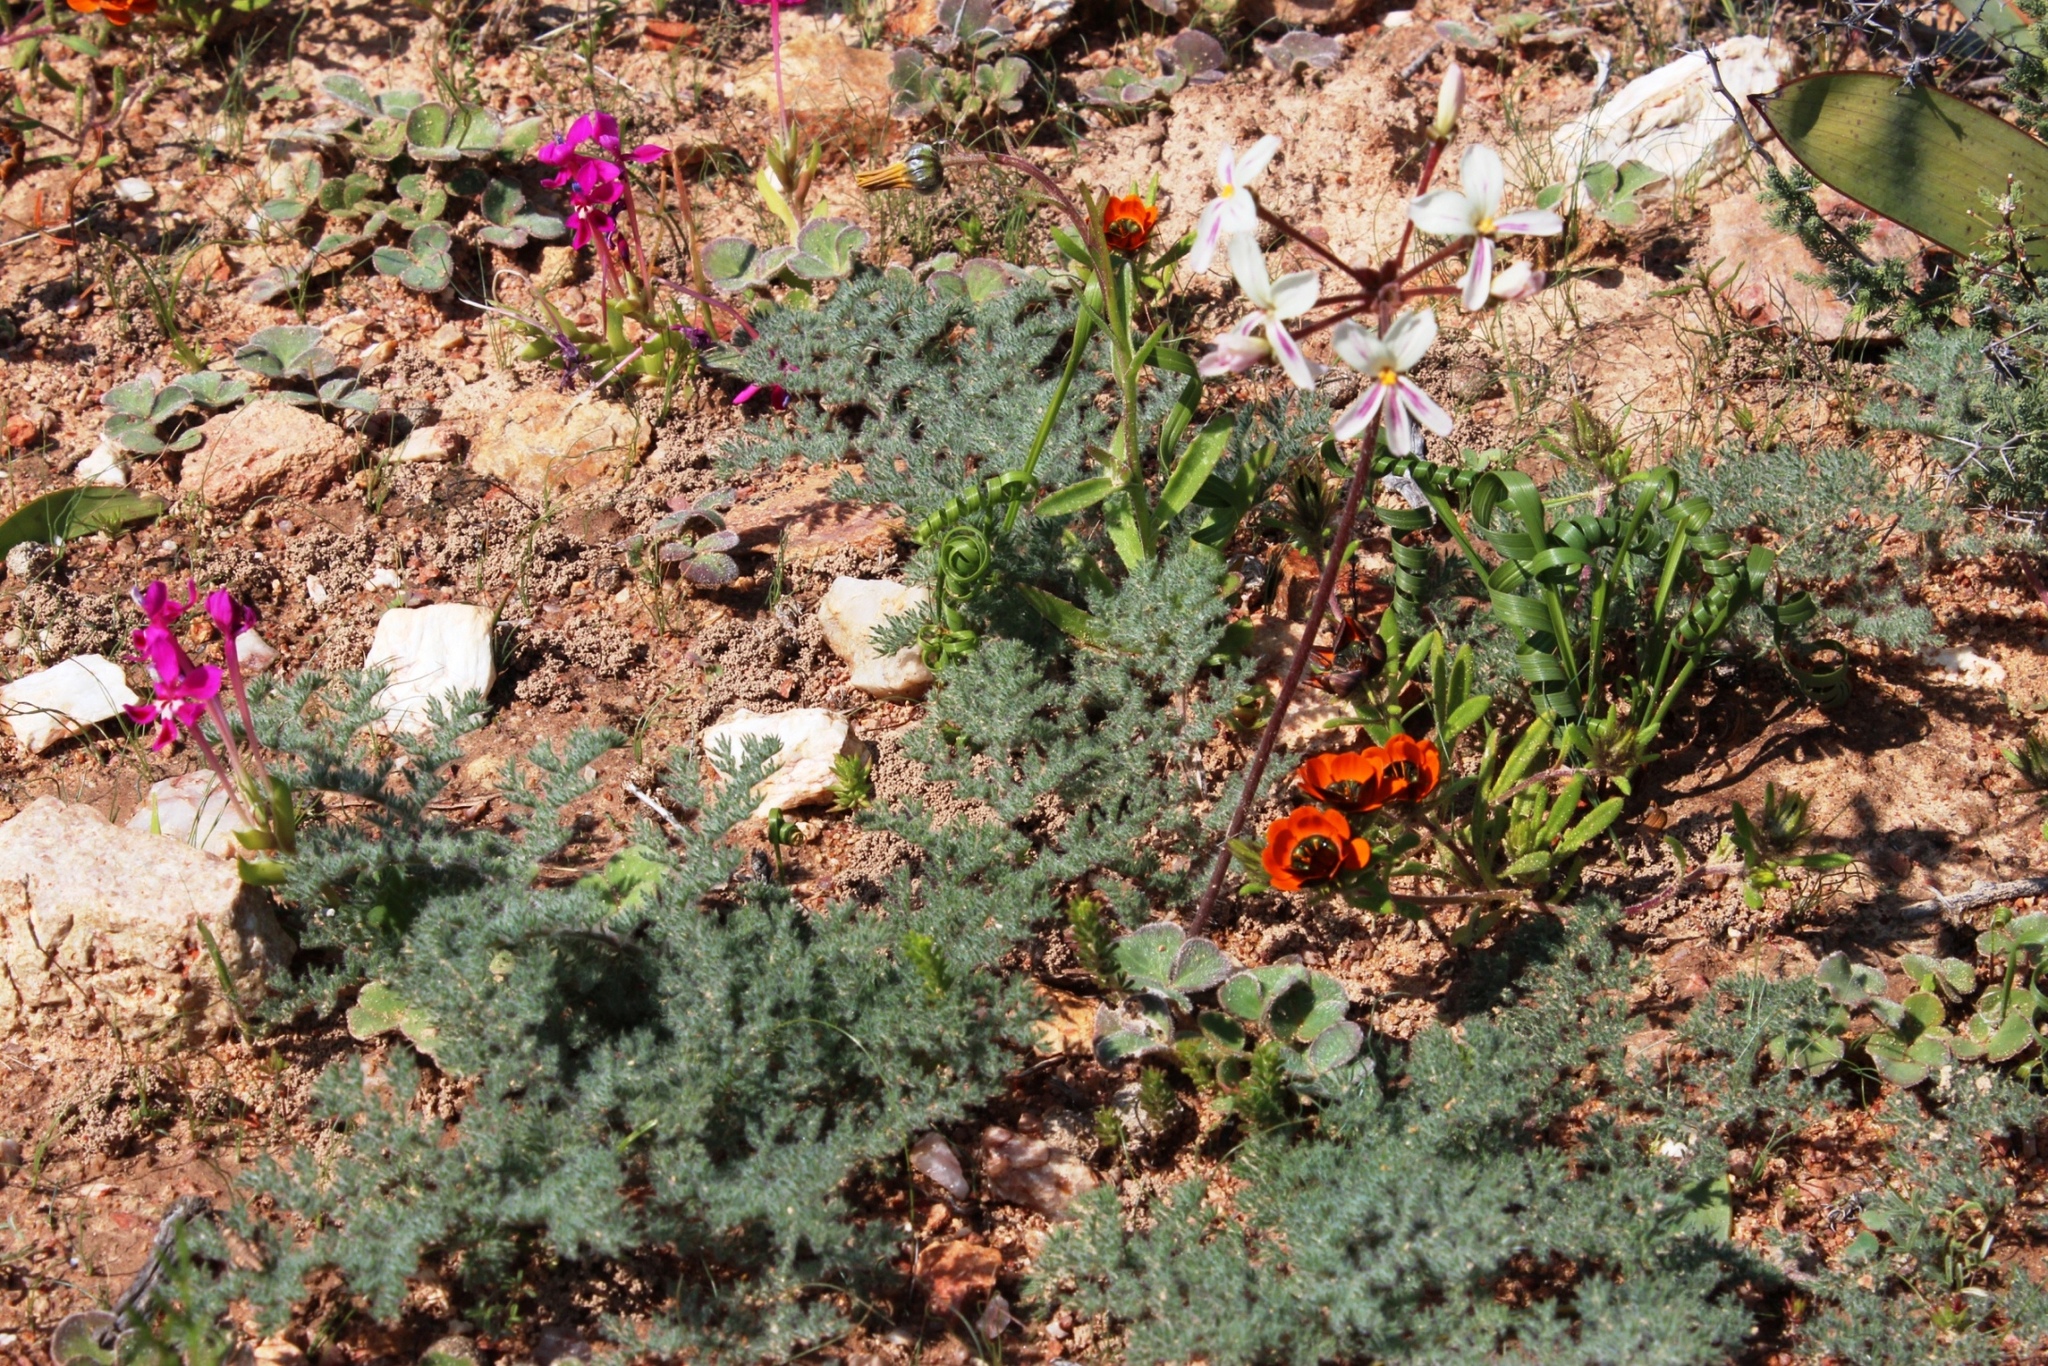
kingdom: Plantae
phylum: Tracheophyta
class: Magnoliopsida
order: Geraniales
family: Geraniaceae
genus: Pelargonium
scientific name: Pelargonium triste
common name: Night-scent pelargonium
